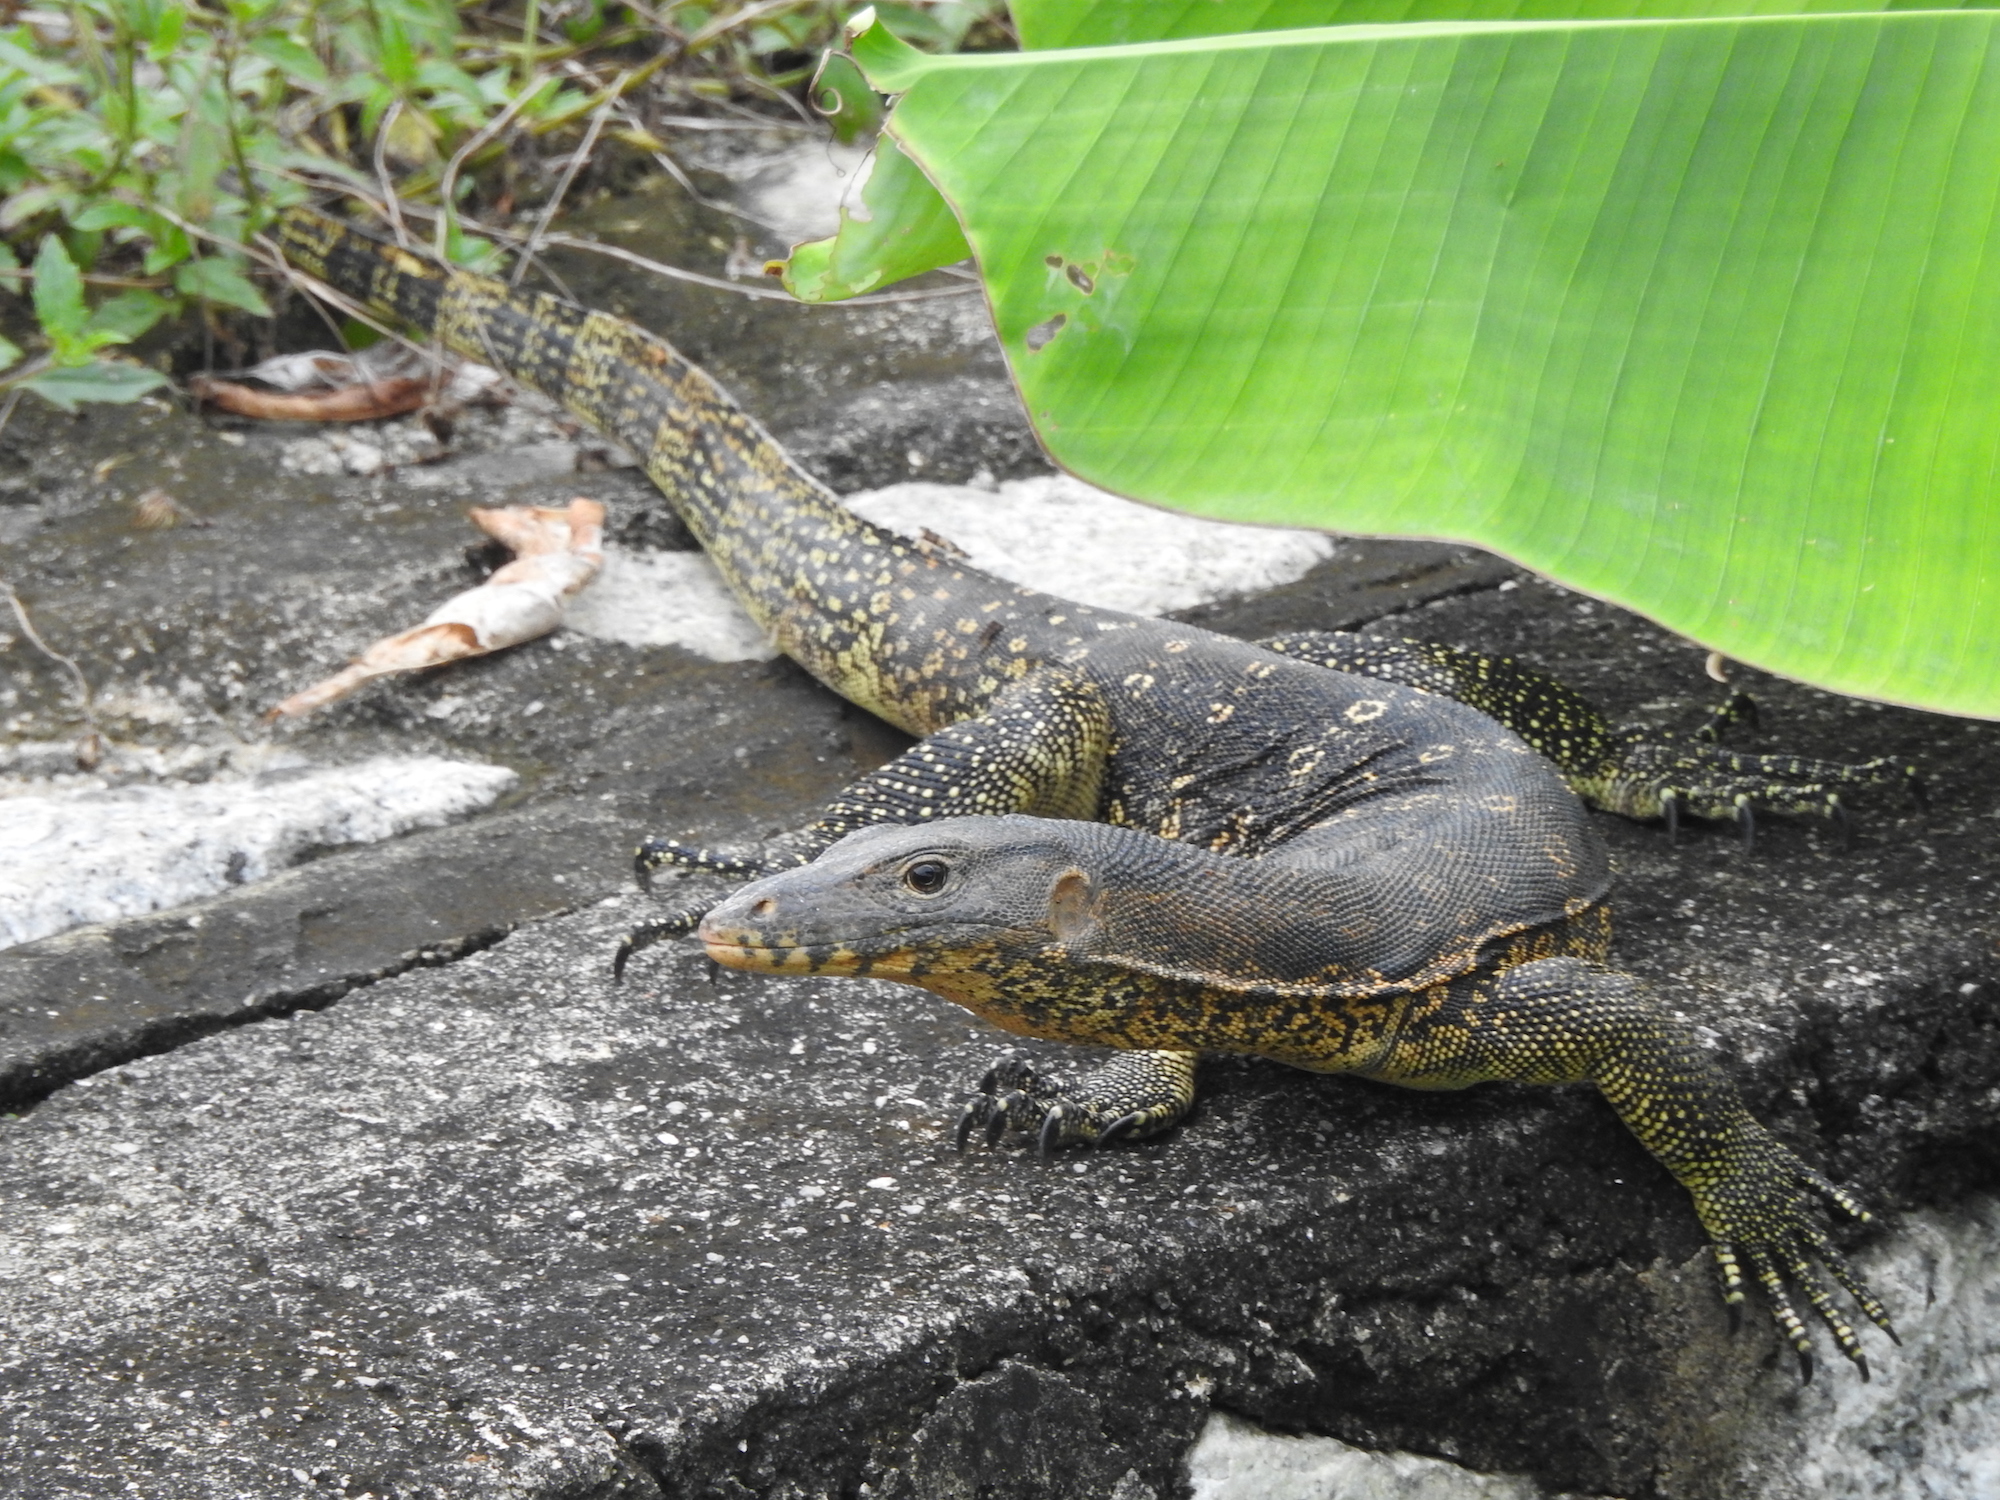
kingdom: Animalia
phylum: Chordata
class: Squamata
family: Varanidae
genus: Varanus
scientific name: Varanus salvator
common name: Common water monitor
